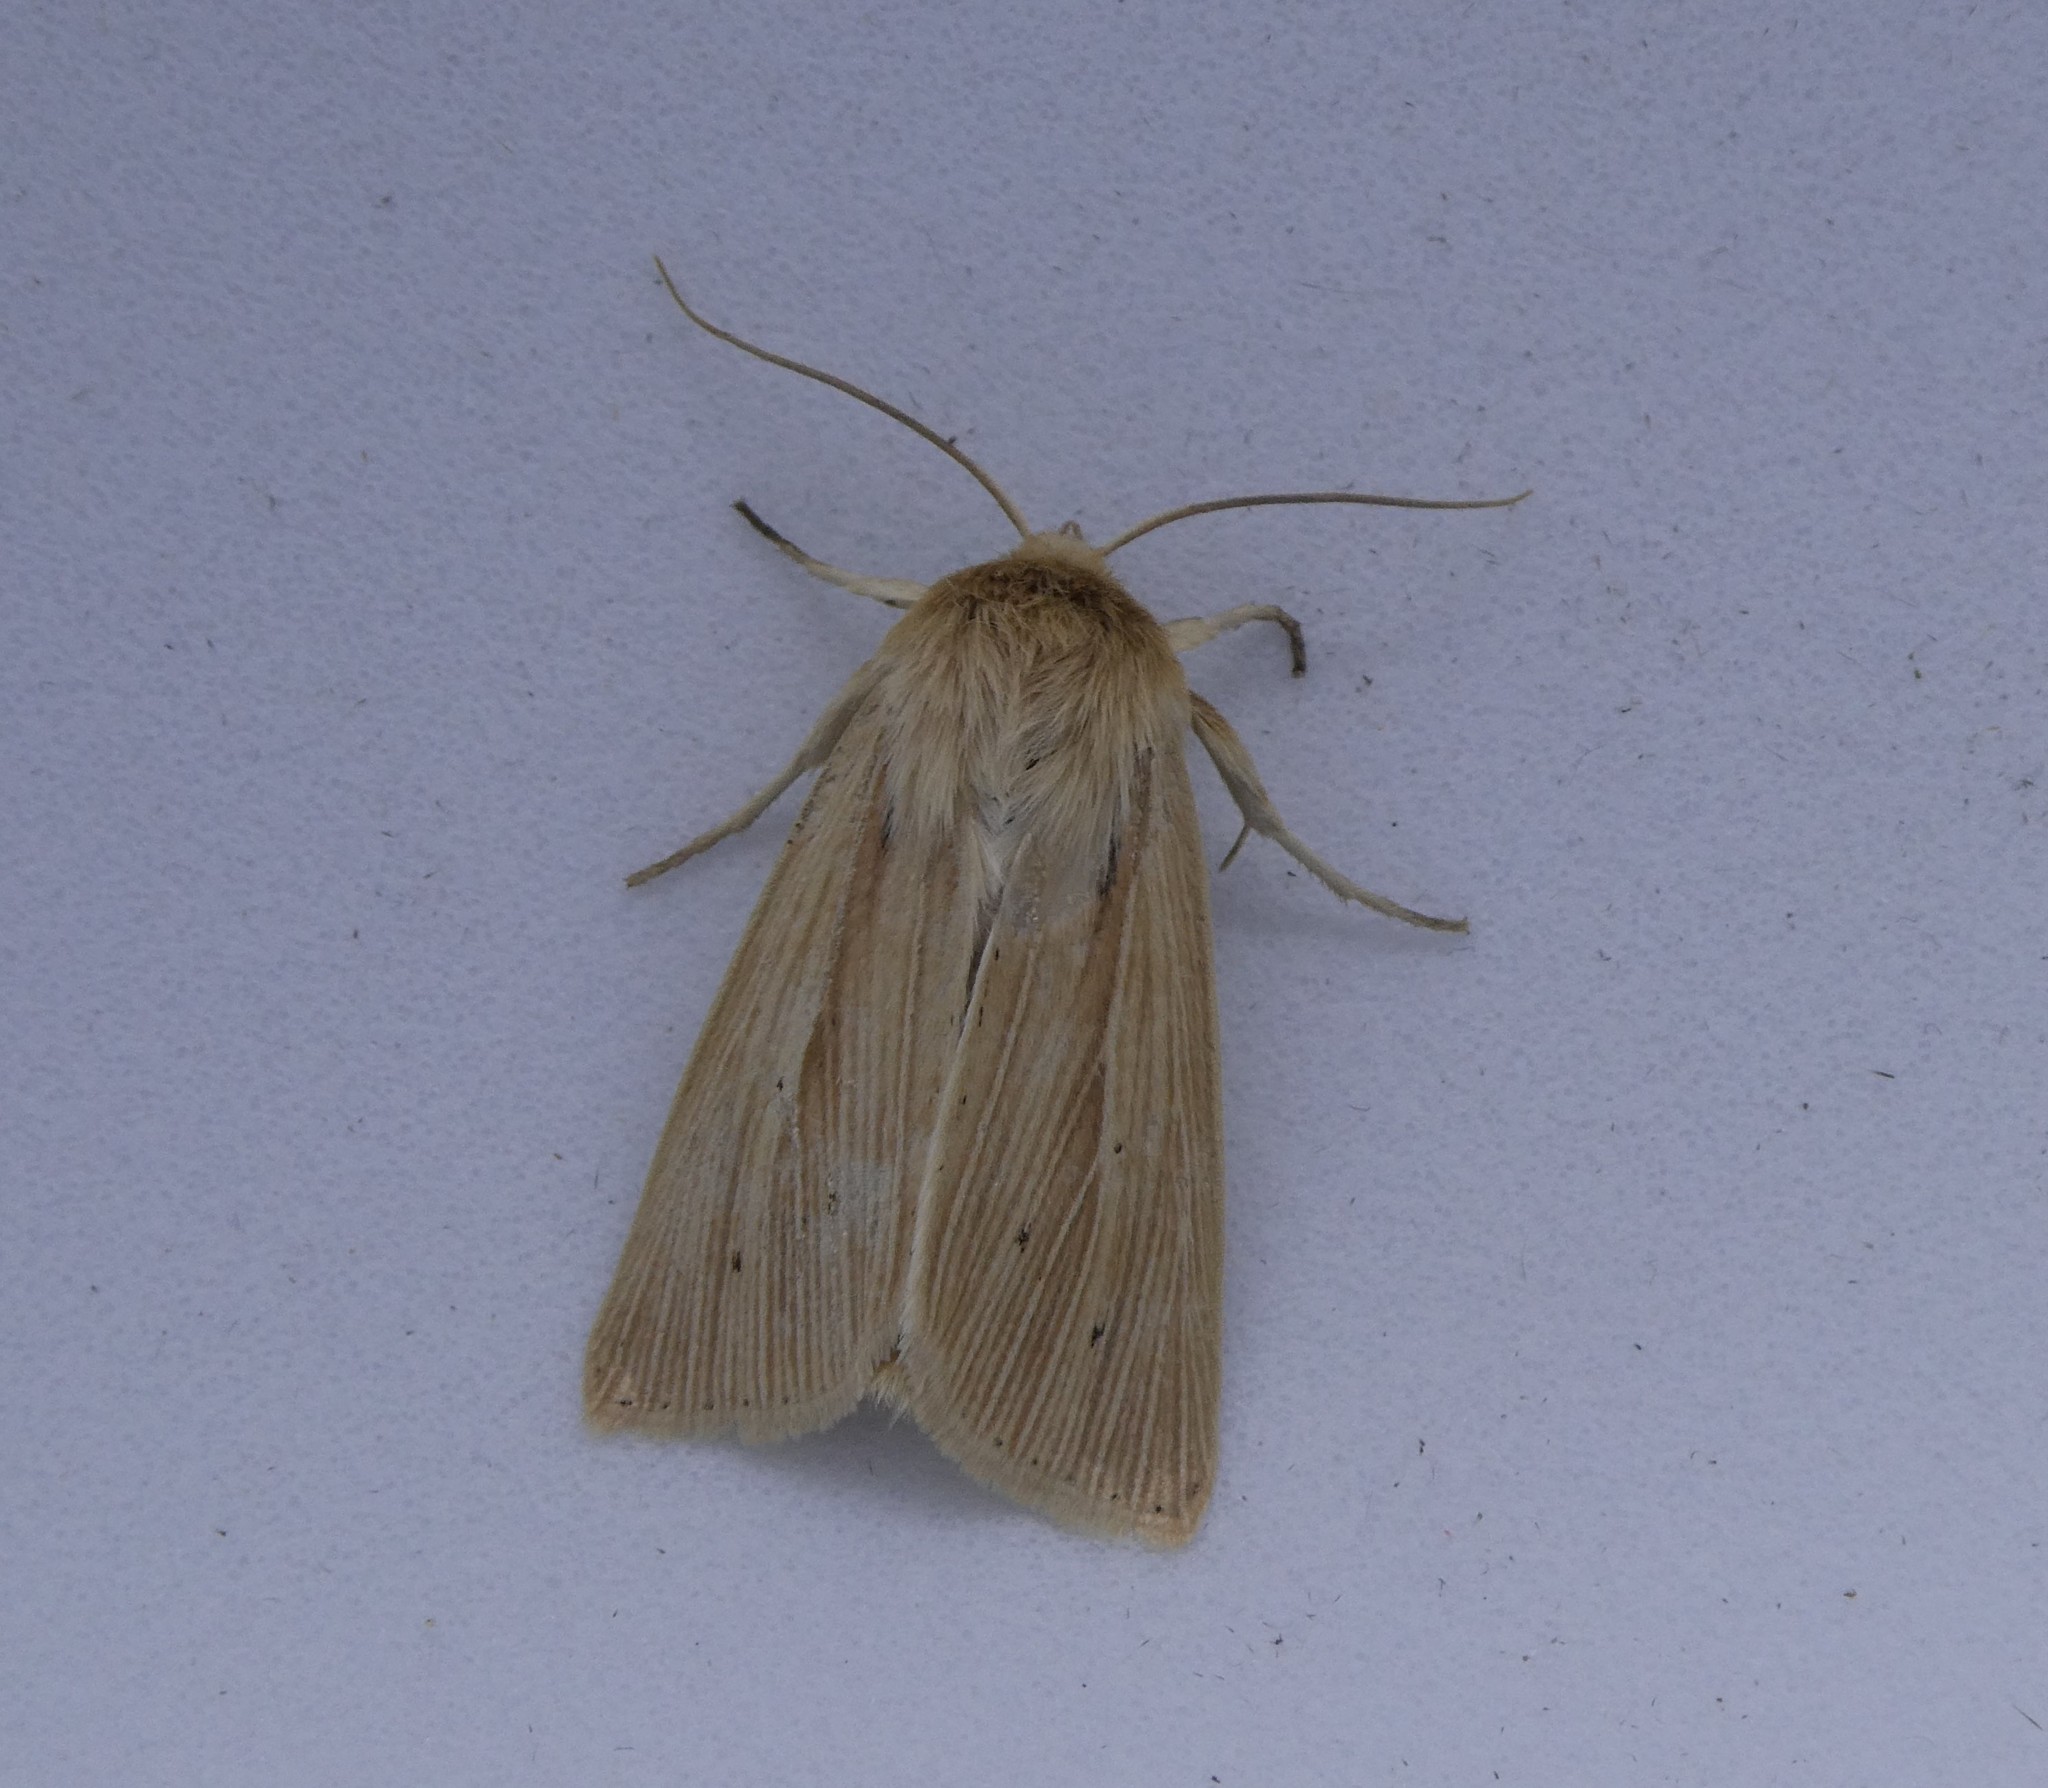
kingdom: Animalia
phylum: Arthropoda
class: Insecta
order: Lepidoptera
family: Noctuidae
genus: Mythimna
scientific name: Mythimna oxygala
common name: Lesser wainscot
